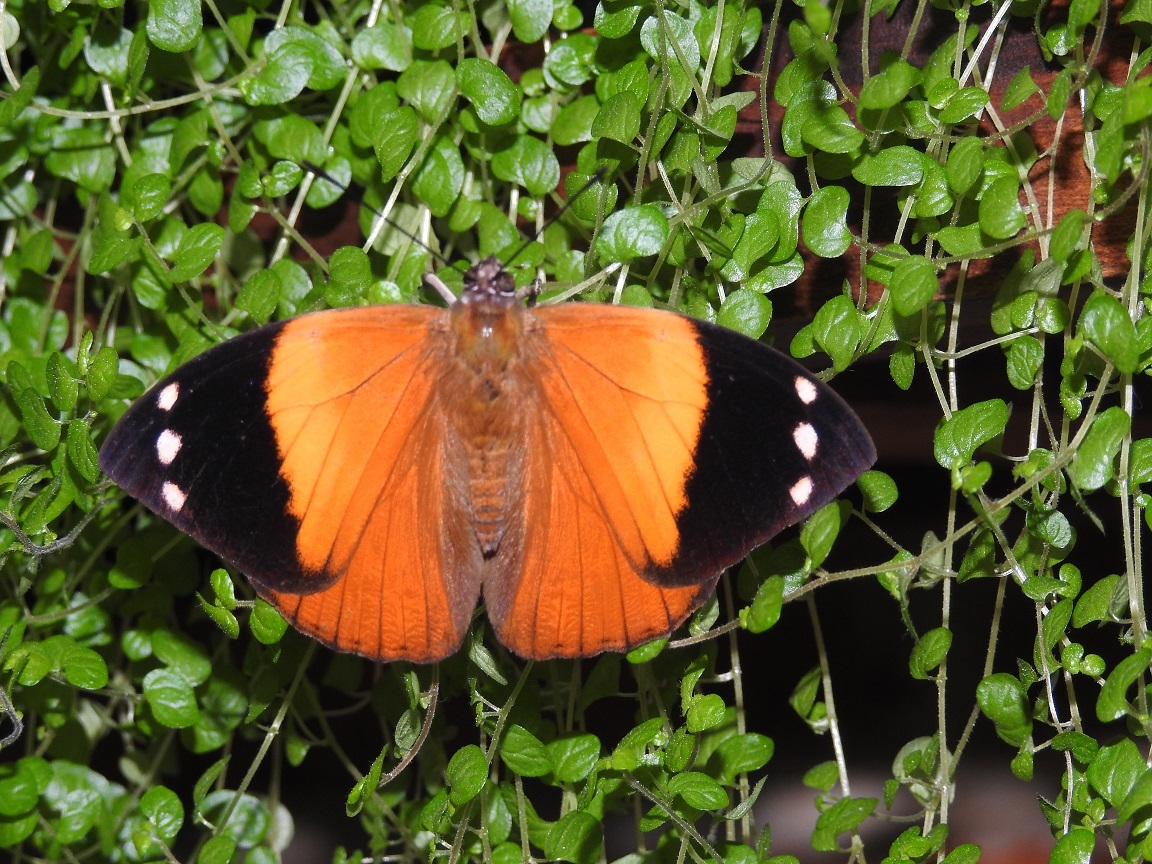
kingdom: Animalia
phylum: Arthropoda
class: Insecta
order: Lepidoptera
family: Nymphalidae
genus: Smyrna
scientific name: Smyrna karwinskii
